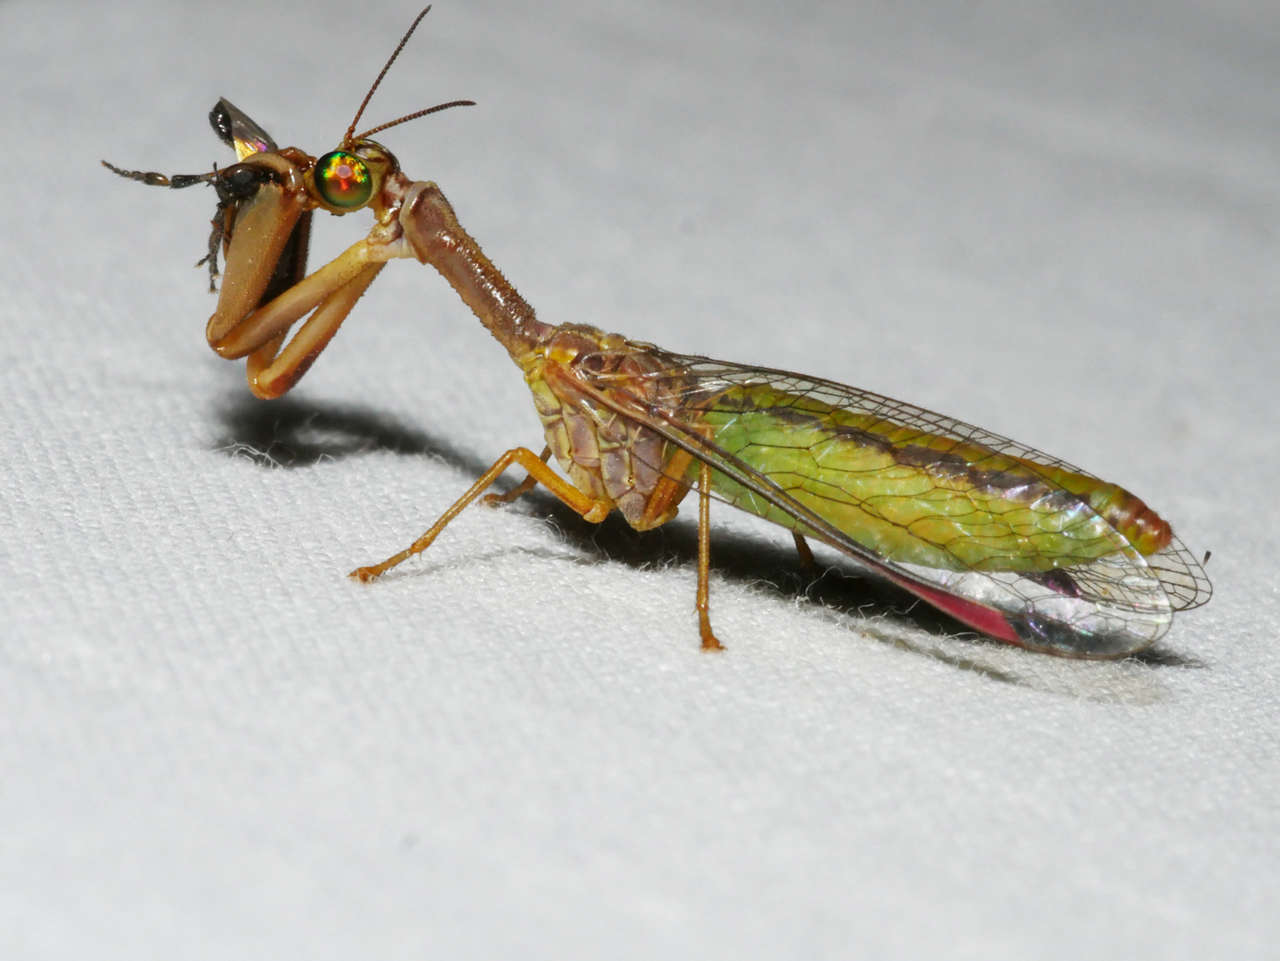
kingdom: Animalia
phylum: Arthropoda
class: Insecta
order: Neuroptera
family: Mantispidae
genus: Campion
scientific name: Campion cruciferus
